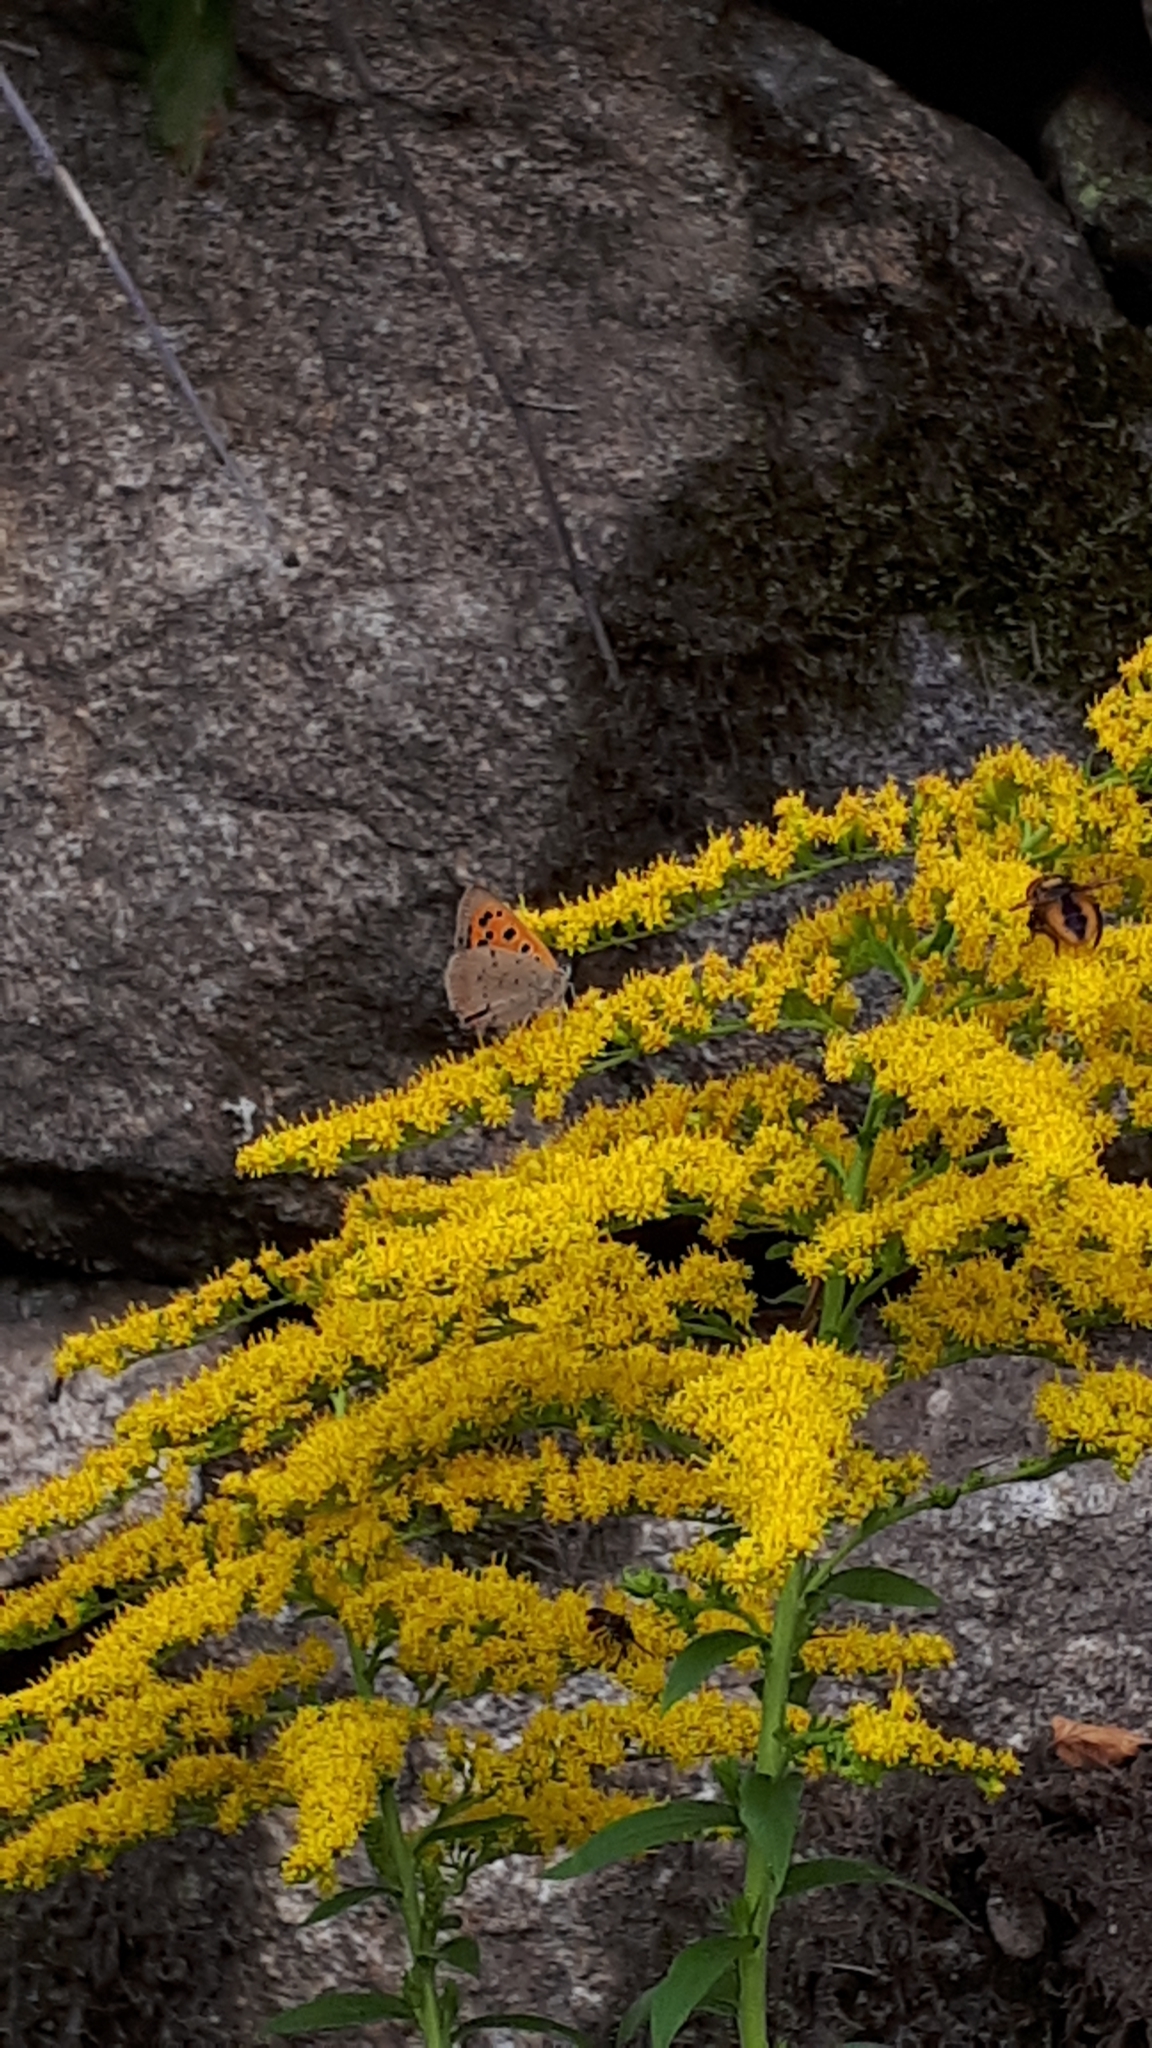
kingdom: Animalia
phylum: Arthropoda
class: Insecta
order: Lepidoptera
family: Lycaenidae
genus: Lycaena
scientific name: Lycaena phlaeas
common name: Small copper
